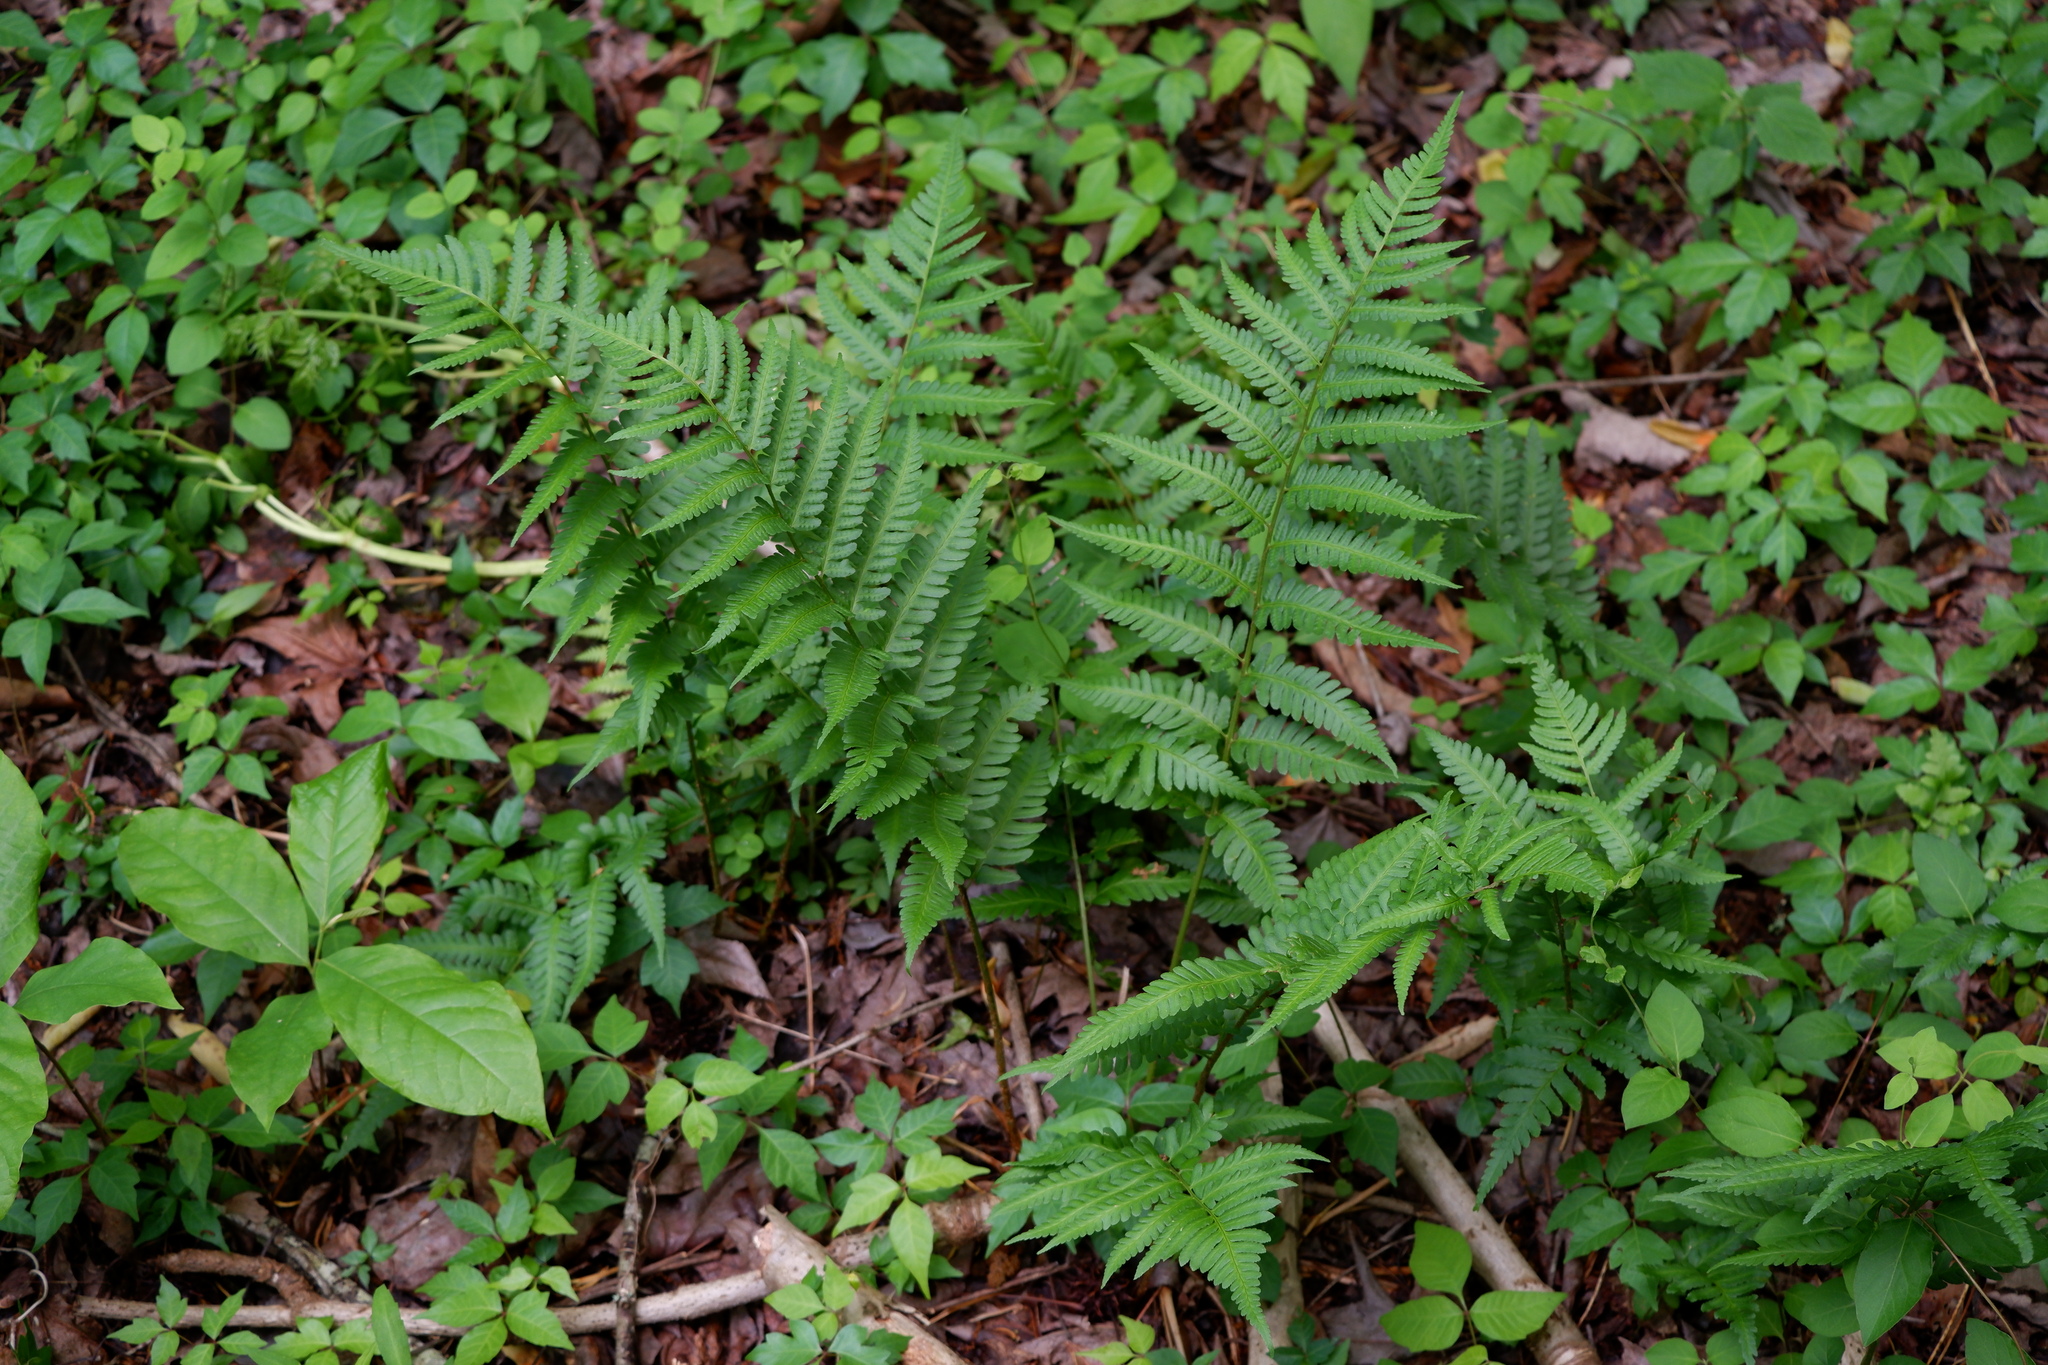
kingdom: Plantae
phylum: Tracheophyta
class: Polypodiopsida
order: Polypodiales
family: Dryopteridaceae
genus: Dryopteris
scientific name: Dryopteris celsa
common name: Log fern
